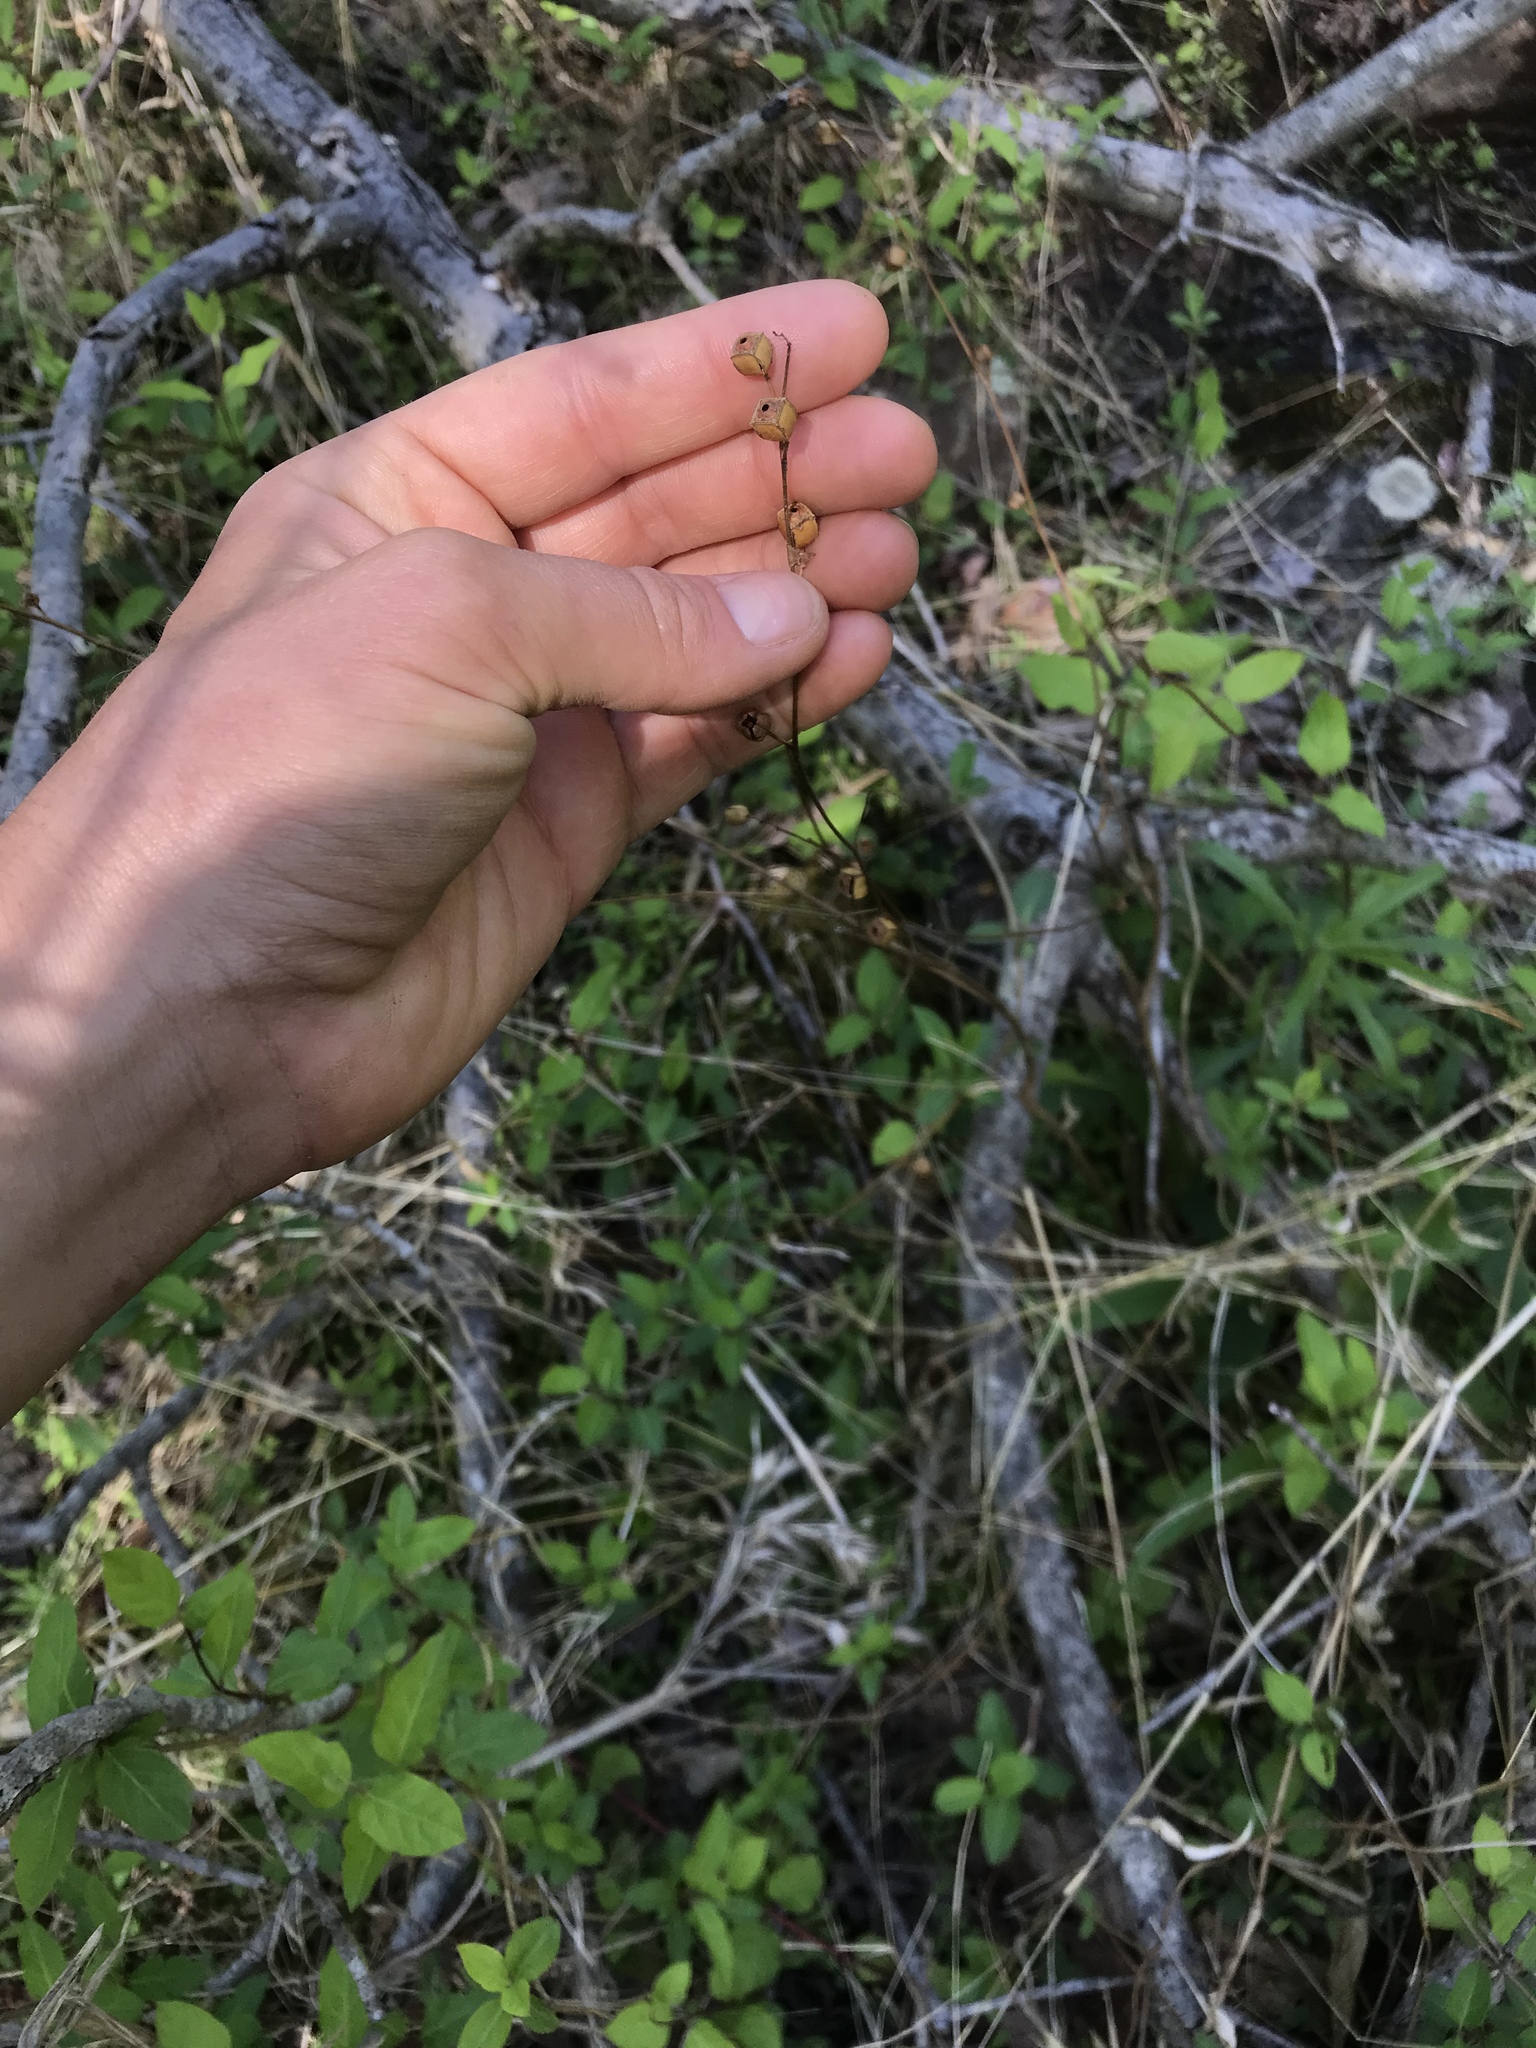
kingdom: Plantae
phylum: Tracheophyta
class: Magnoliopsida
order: Myrtales
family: Onagraceae
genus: Ludwigia
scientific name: Ludwigia alternifolia
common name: Rattlebox
